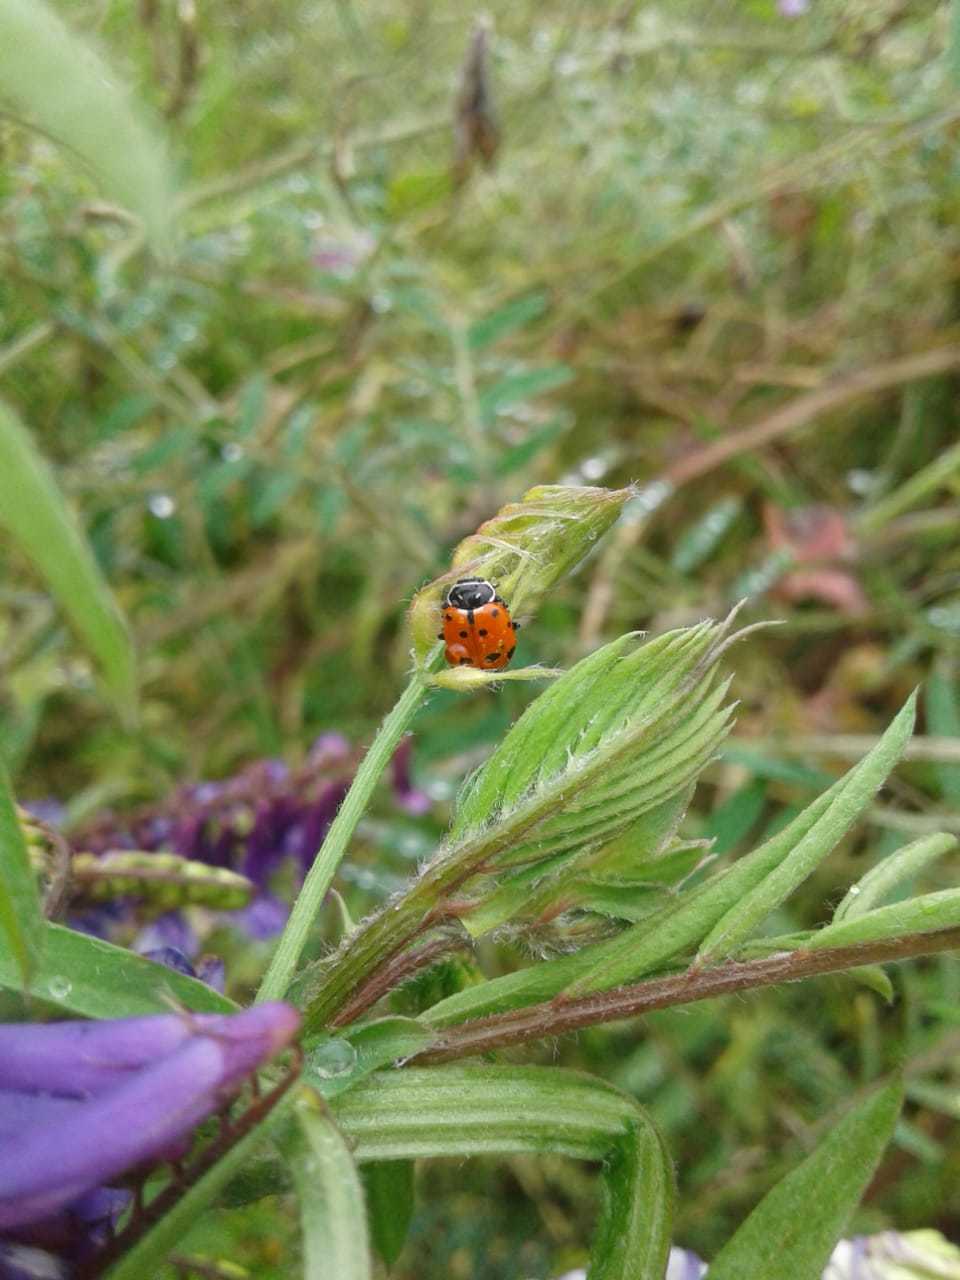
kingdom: Animalia
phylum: Arthropoda
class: Insecta
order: Coleoptera
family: Coccinellidae
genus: Hippodamia
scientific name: Hippodamia convergens
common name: Convergent lady beetle
